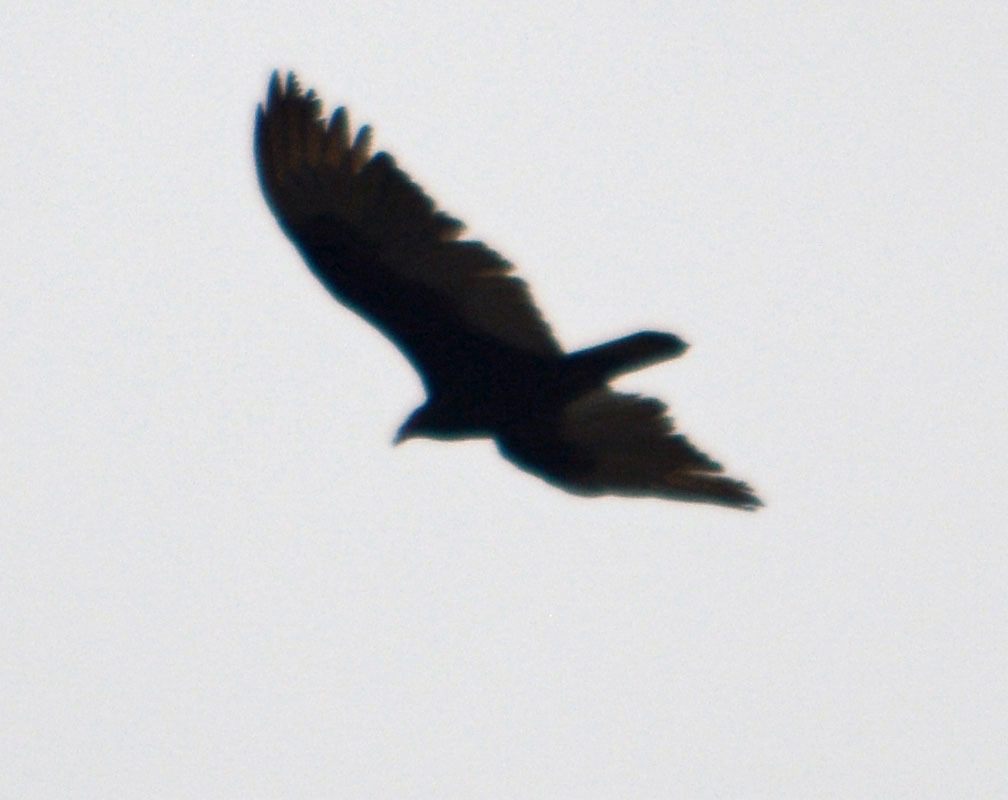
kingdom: Animalia
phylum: Chordata
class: Aves
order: Accipitriformes
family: Cathartidae
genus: Cathartes
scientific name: Cathartes aura
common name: Turkey vulture
